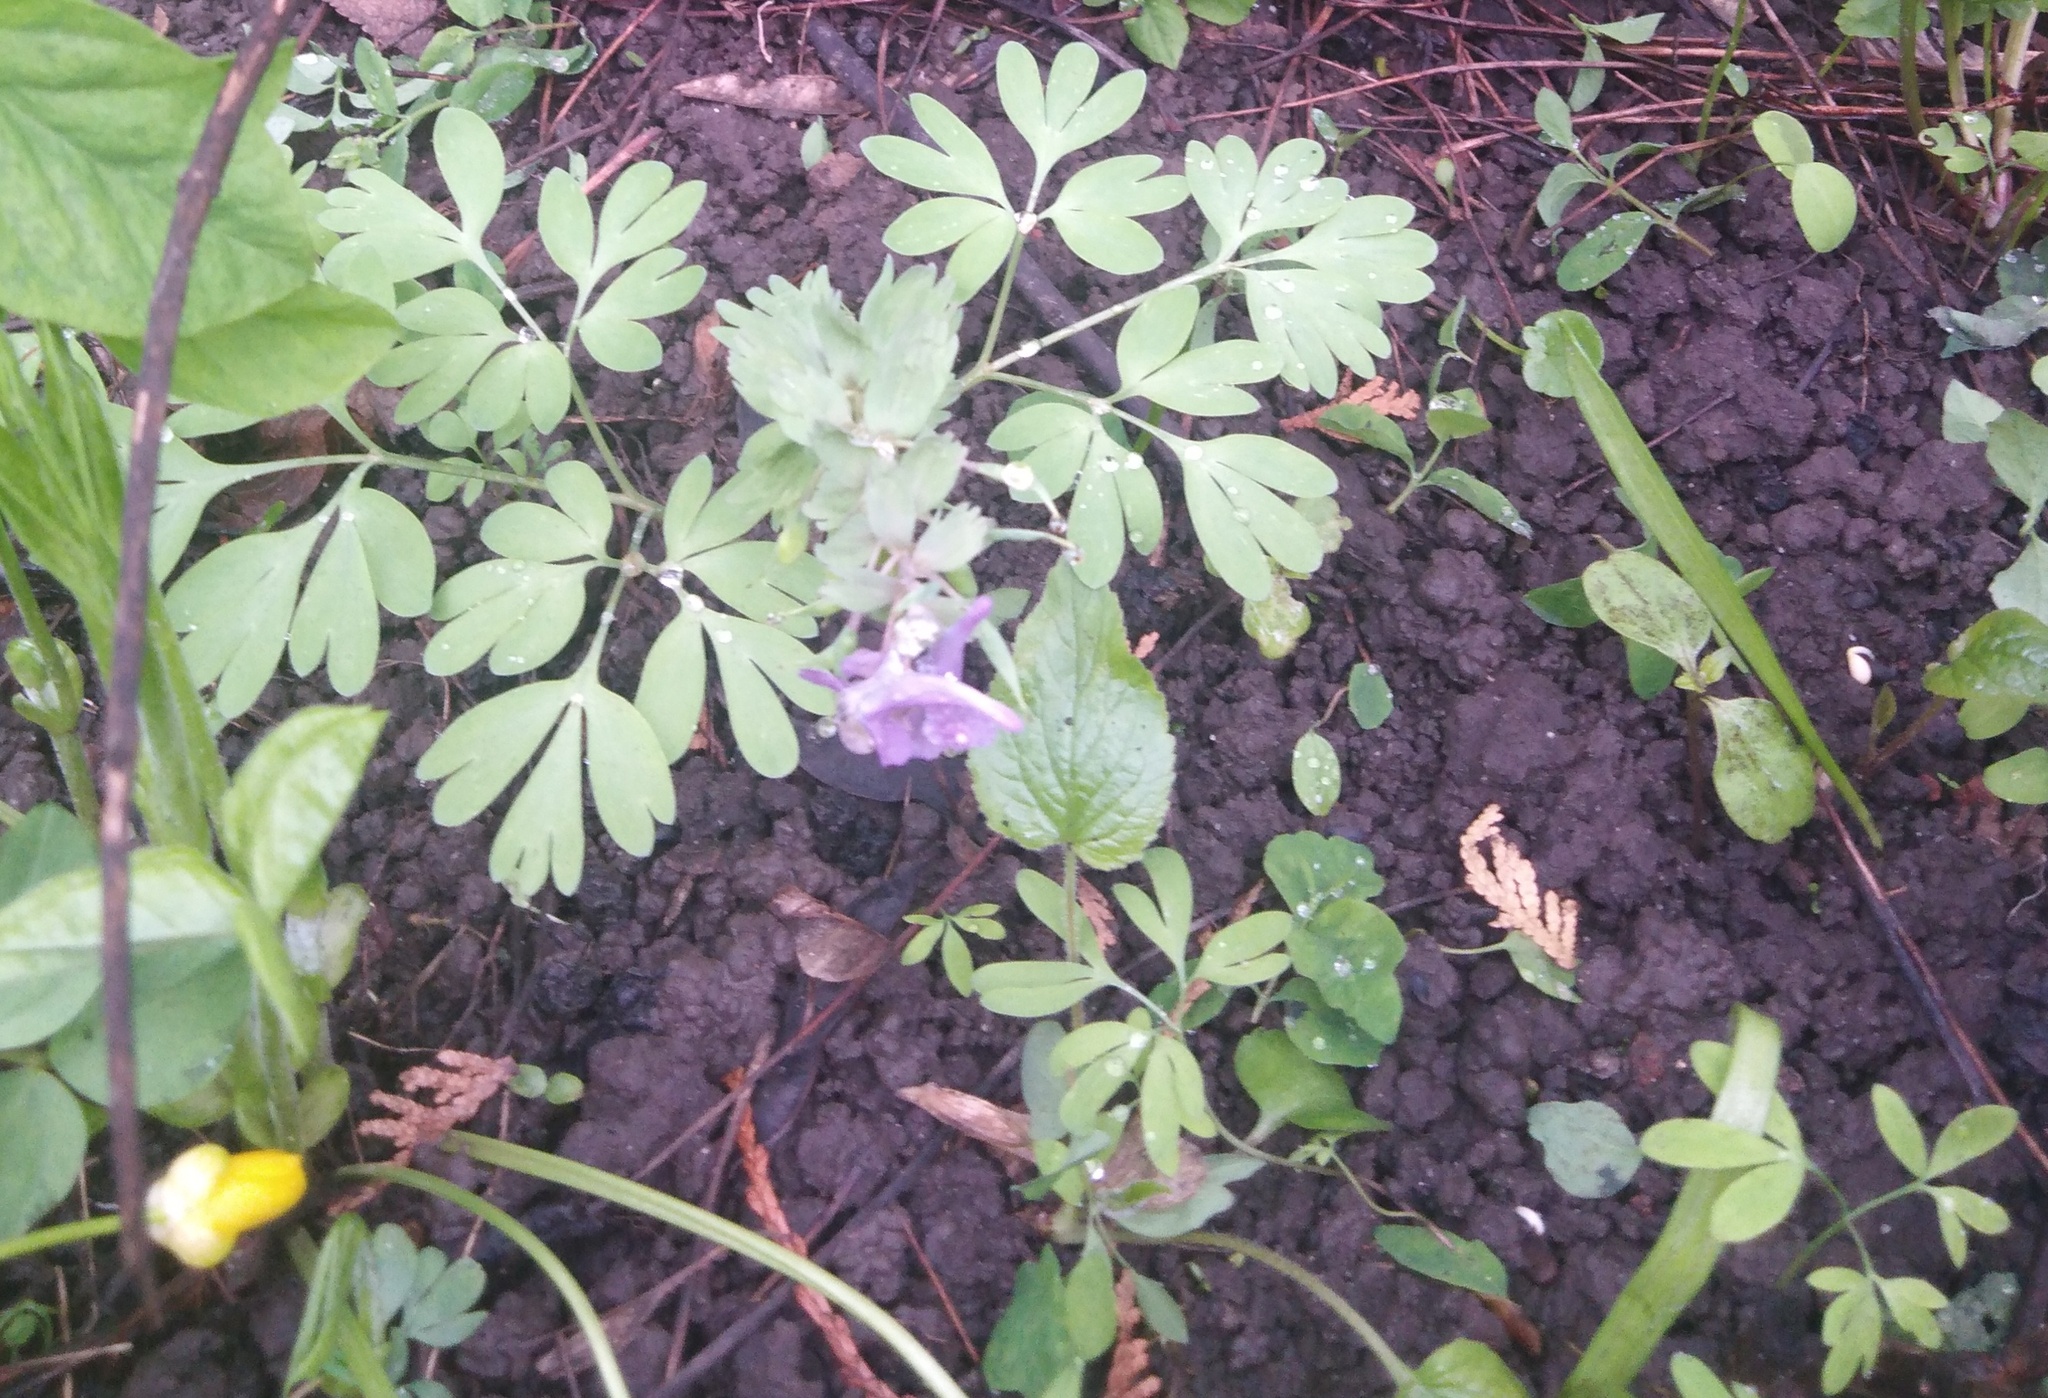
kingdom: Plantae
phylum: Tracheophyta
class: Magnoliopsida
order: Ranunculales
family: Papaveraceae
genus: Corydalis
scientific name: Corydalis solida
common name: Bird-in-a-bush
